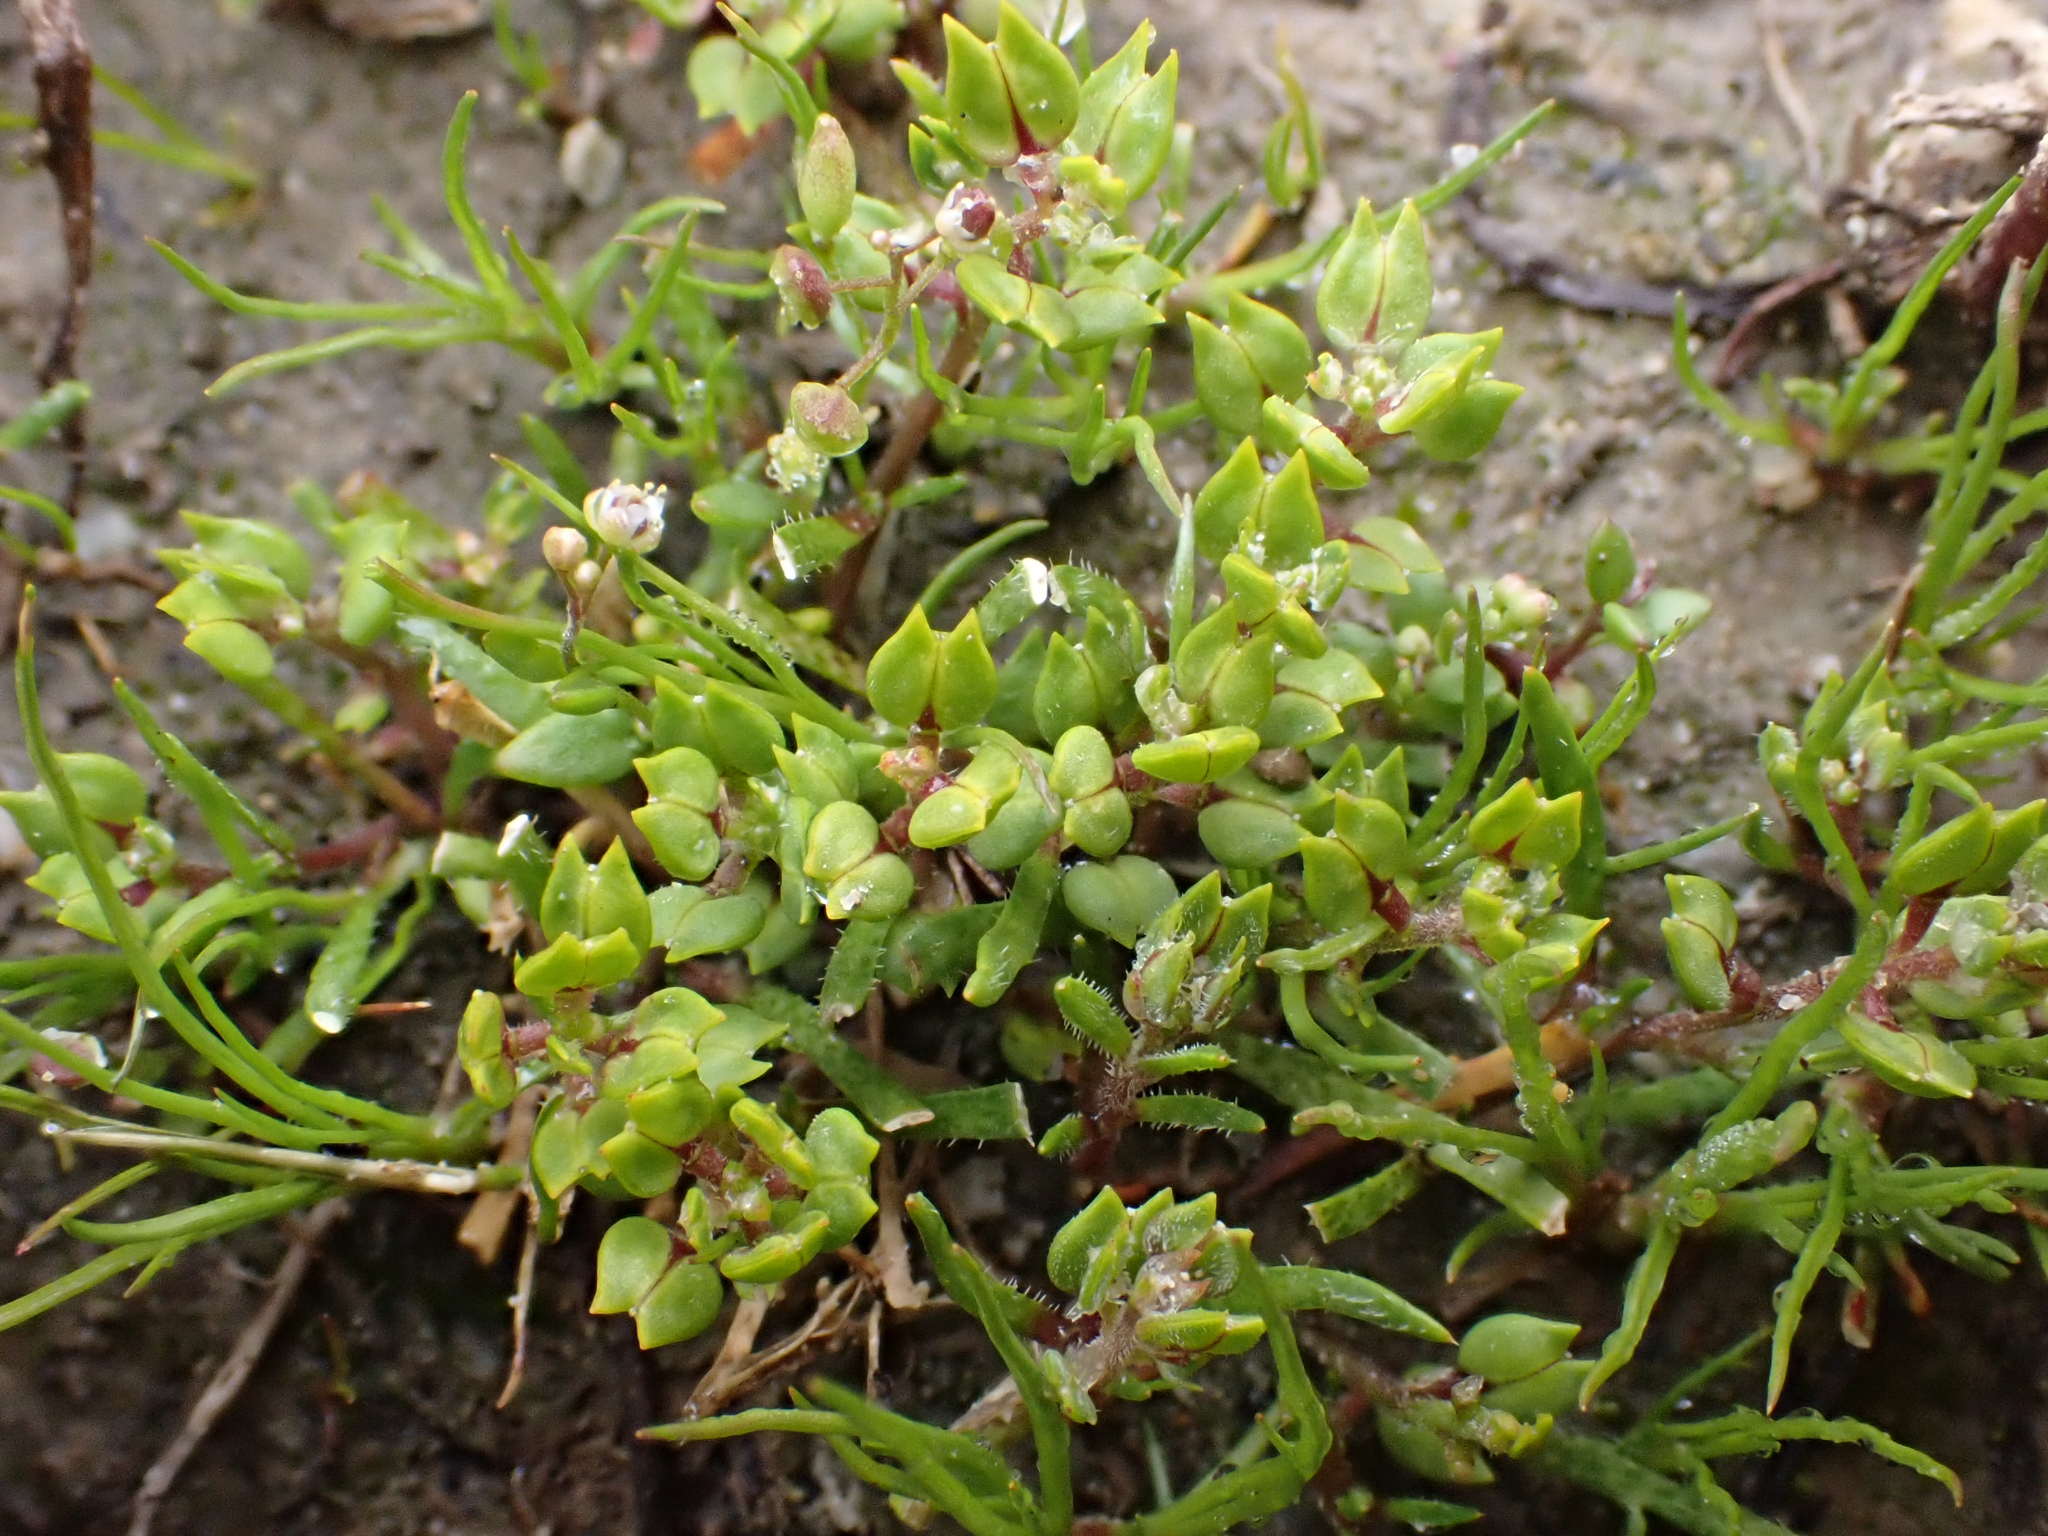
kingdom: Plantae
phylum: Tracheophyta
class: Magnoliopsida
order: Brassicales
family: Brassicaceae
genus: Lepidium
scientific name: Lepidium acutidens
